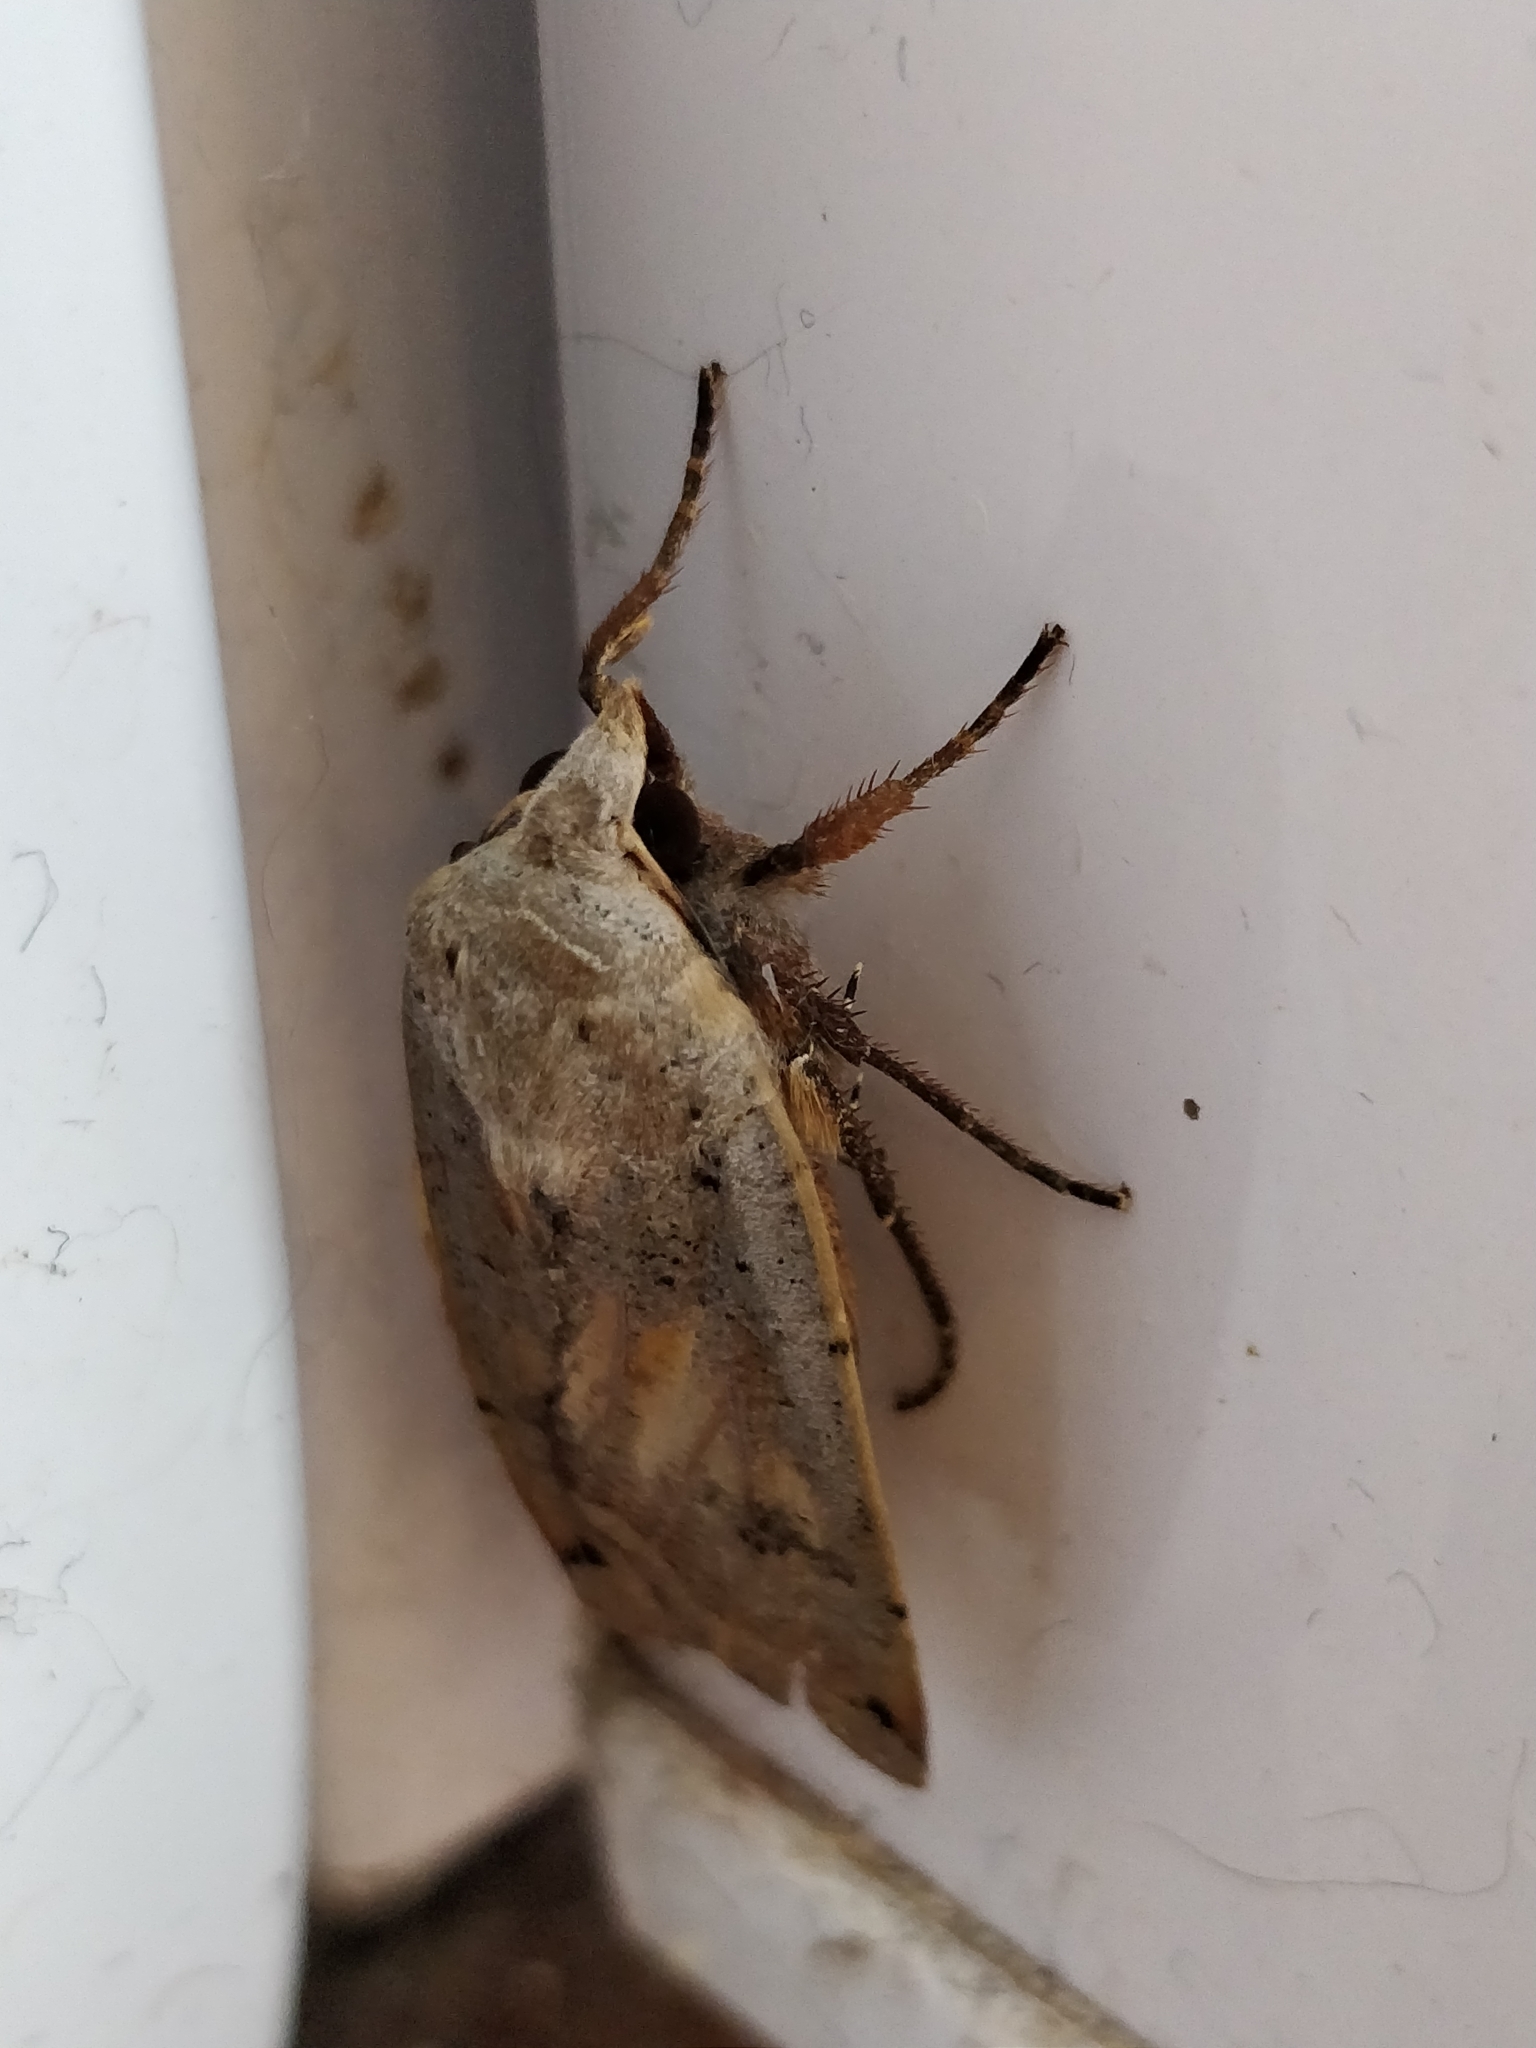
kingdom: Animalia
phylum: Arthropoda
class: Insecta
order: Lepidoptera
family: Noctuidae
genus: Noctua
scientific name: Noctua comes
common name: Lesser yellow underwing
